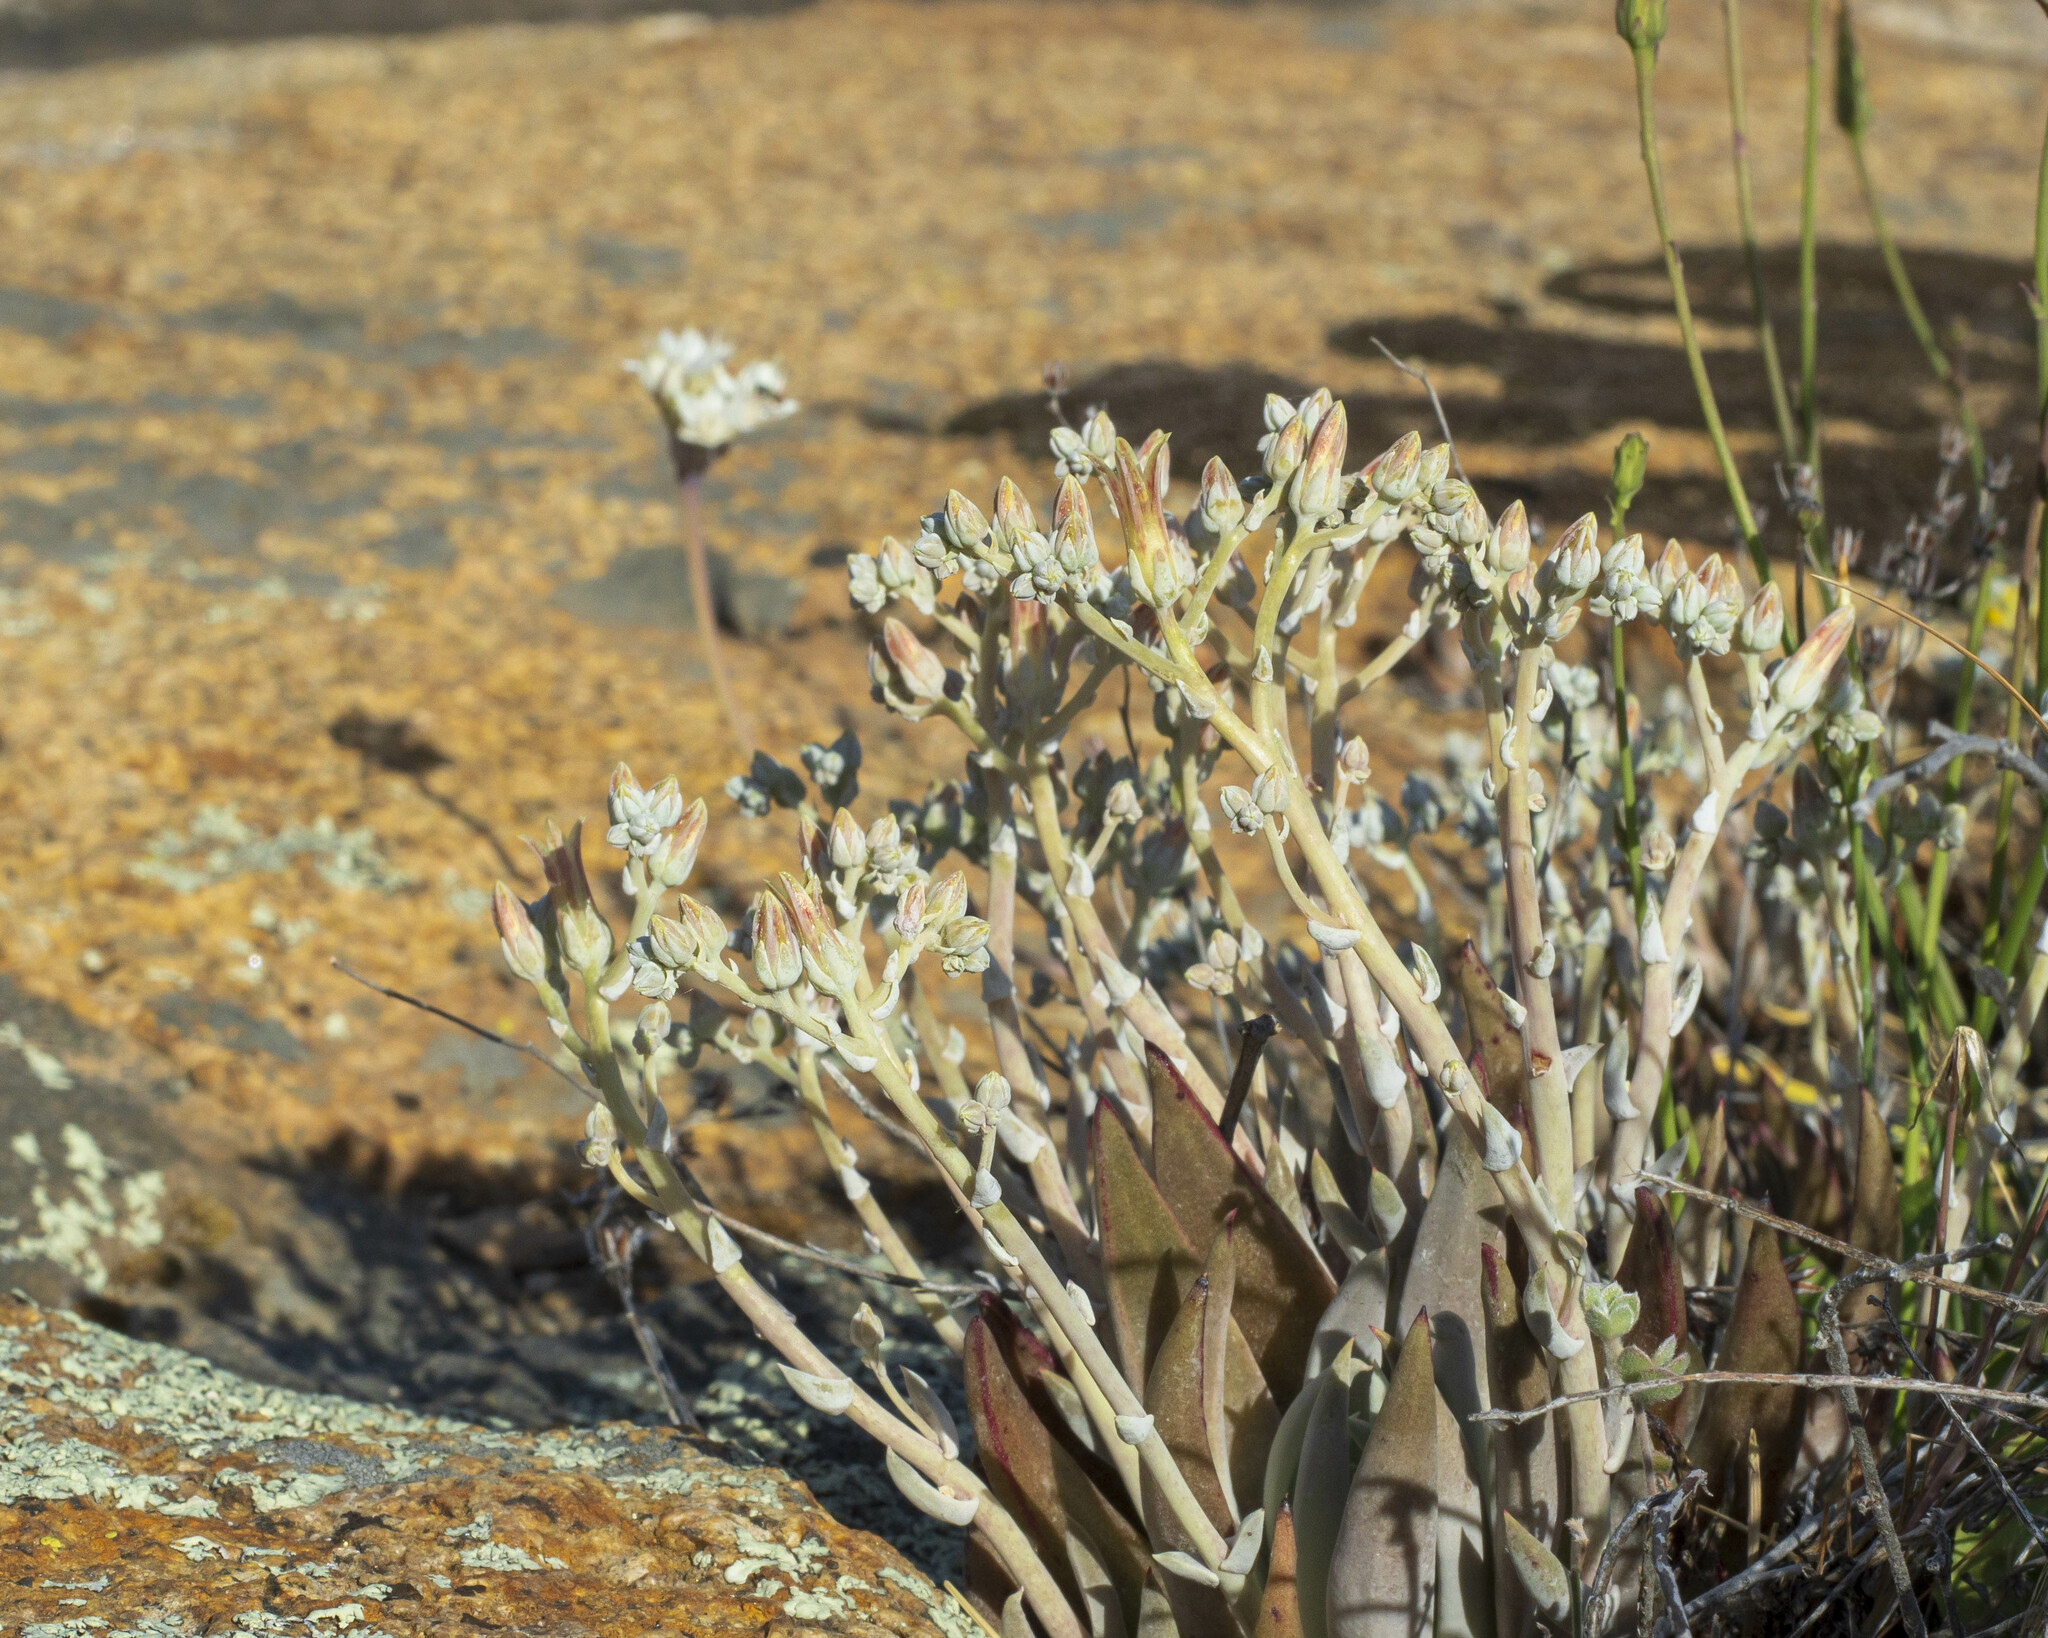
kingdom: Plantae
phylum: Tracheophyta
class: Magnoliopsida
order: Saxifragales
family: Crassulaceae
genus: Dudleya
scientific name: Dudleya abramsii
